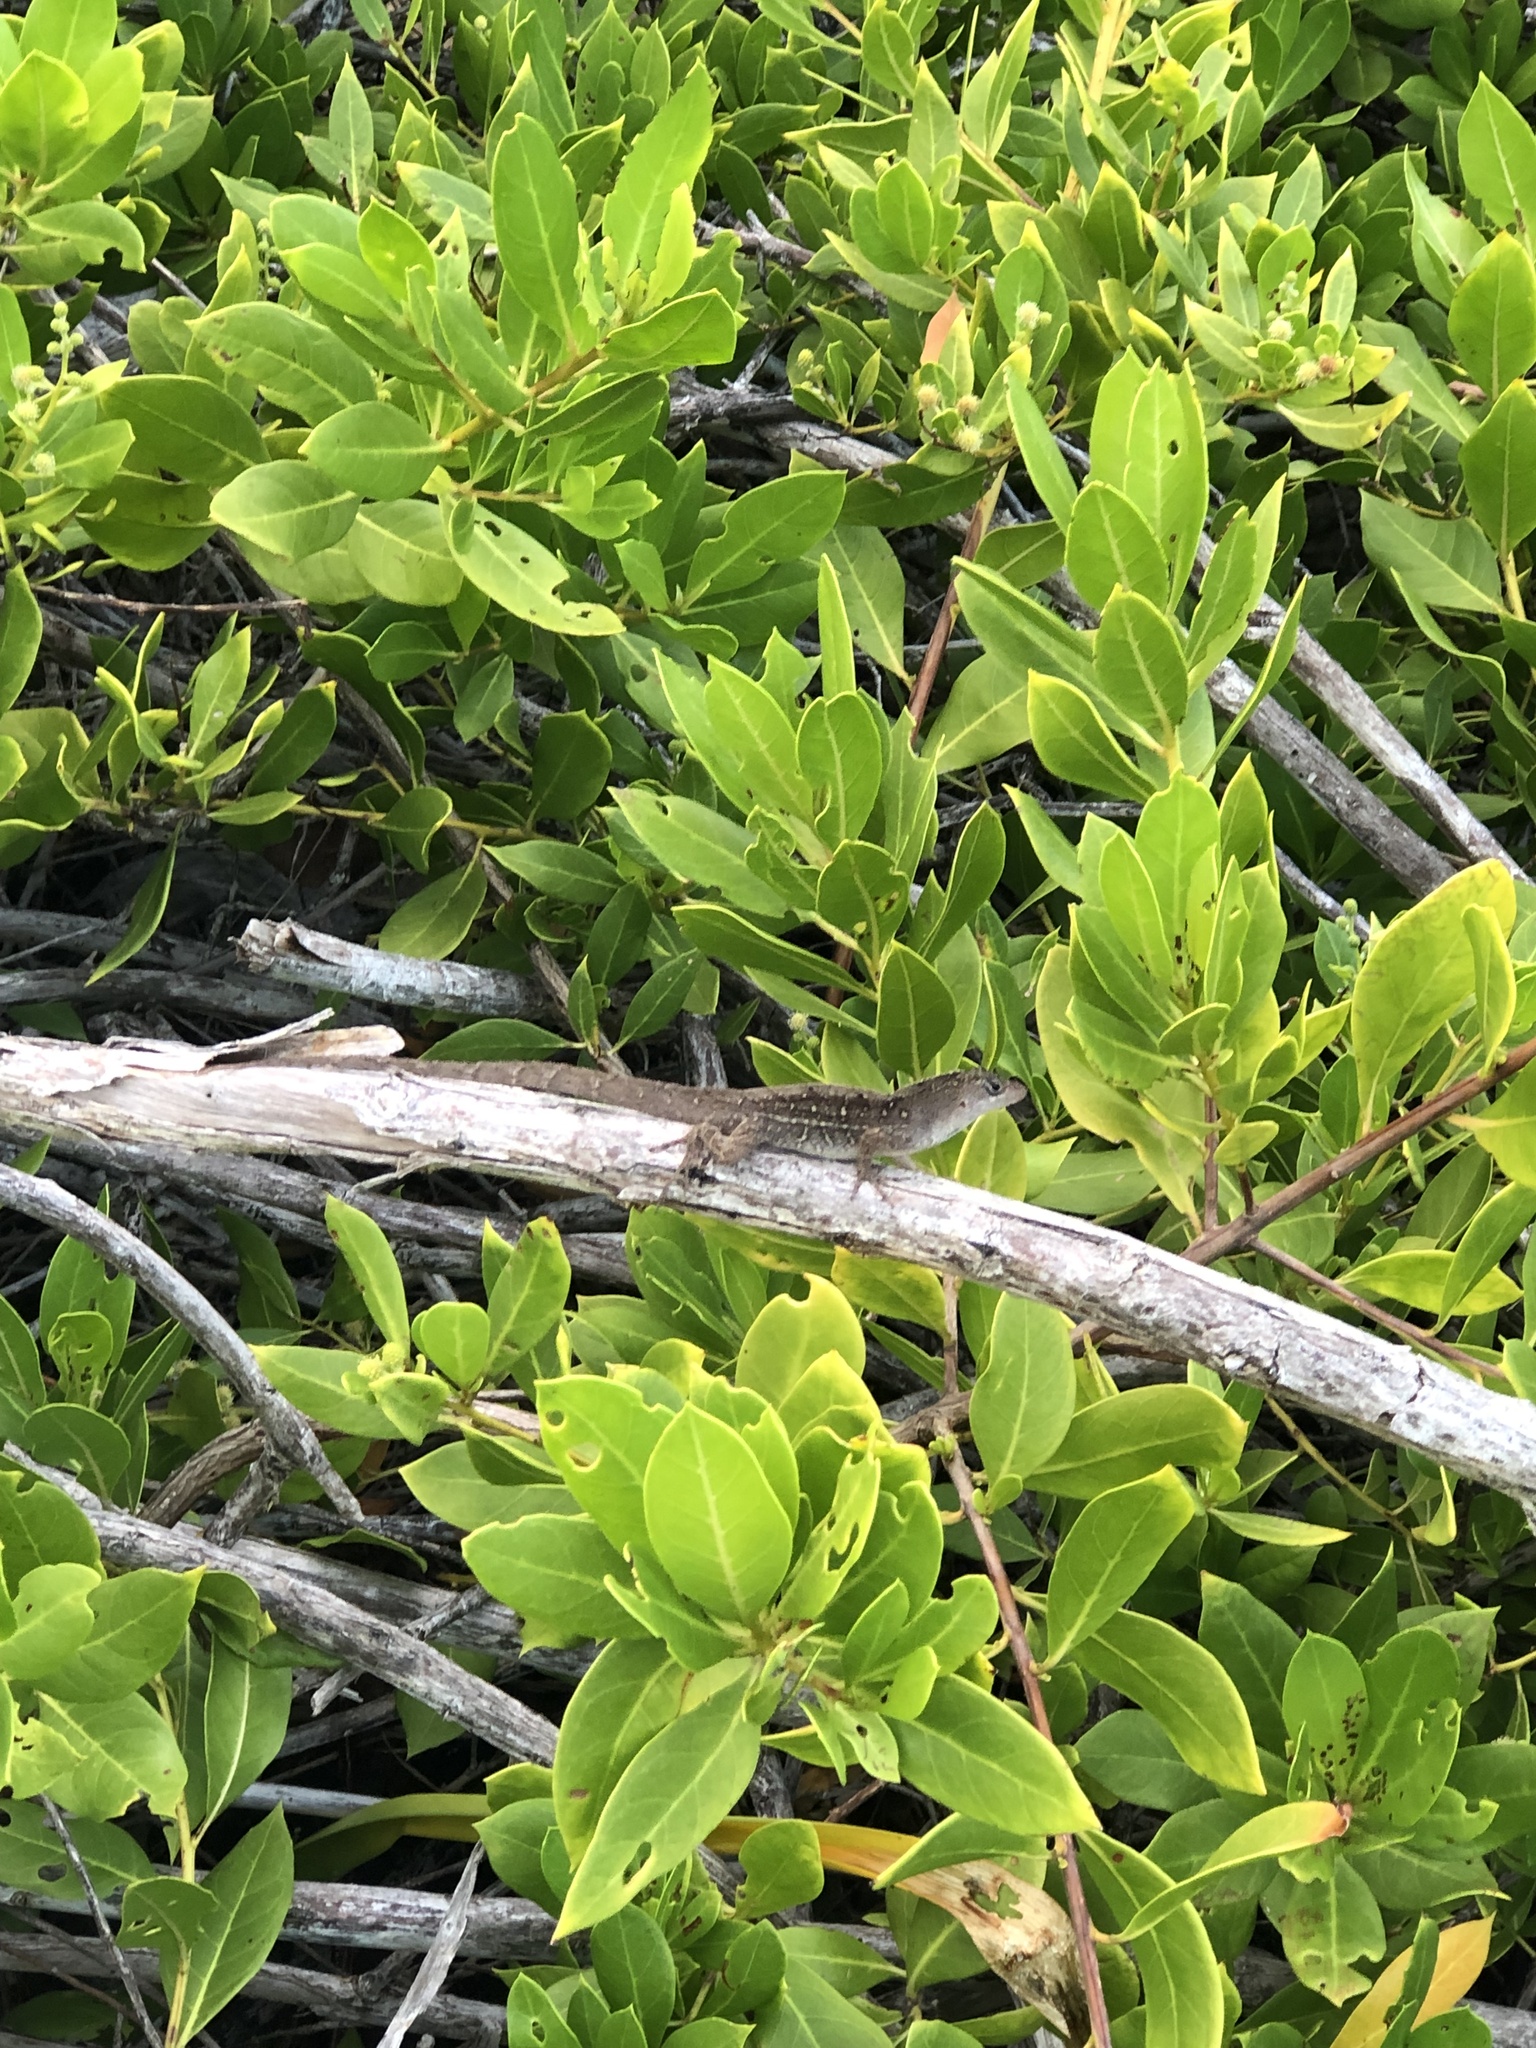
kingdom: Animalia
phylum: Chordata
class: Squamata
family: Dactyloidae
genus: Anolis
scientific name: Anolis sagrei
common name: Brown anole
